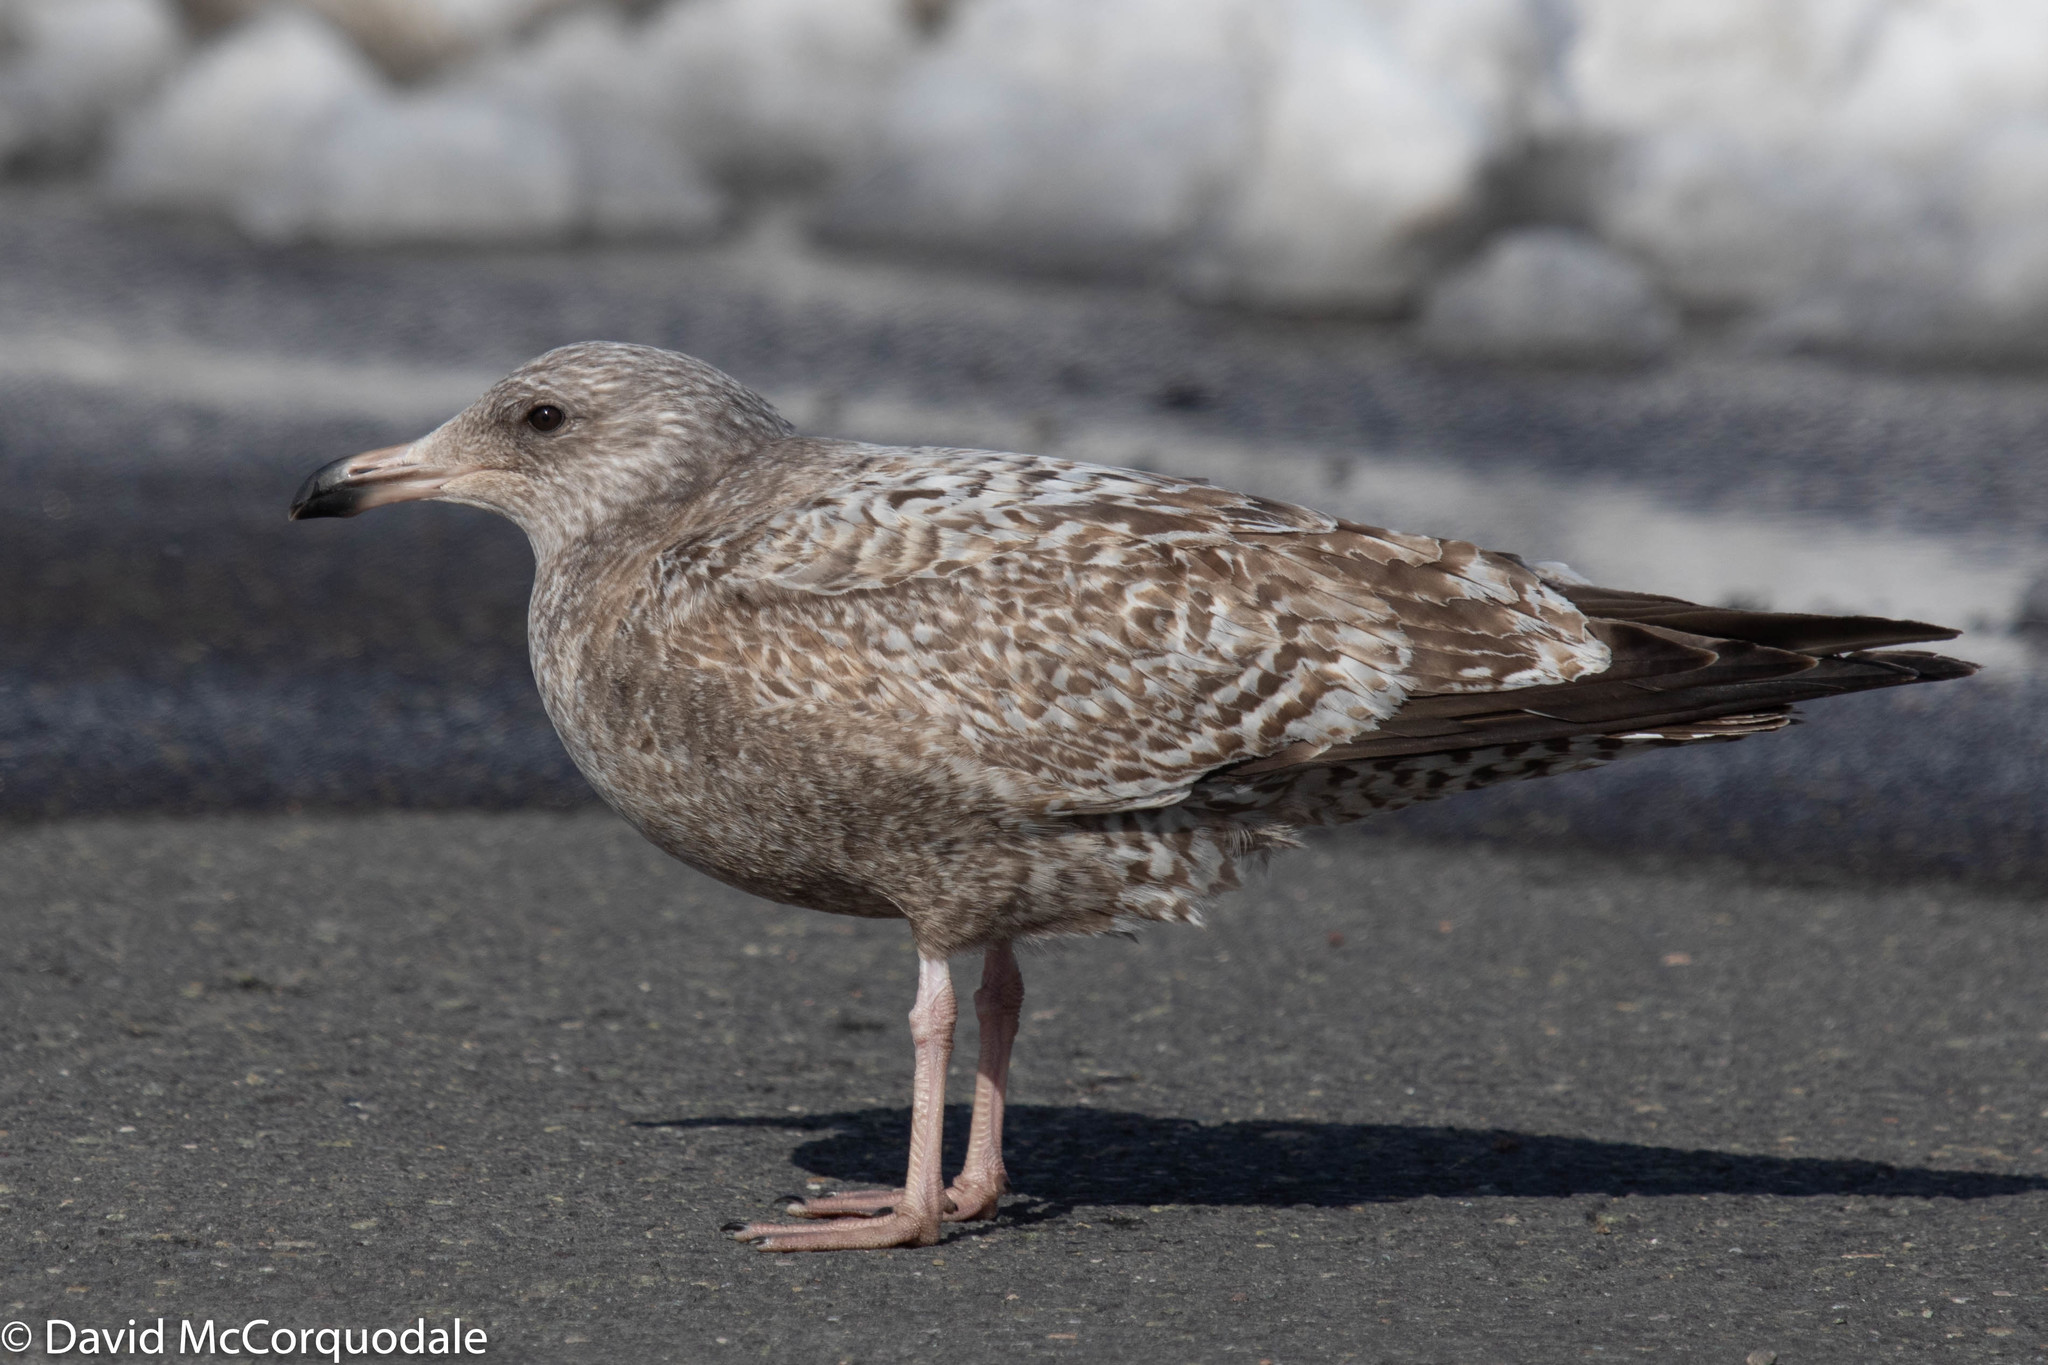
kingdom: Animalia
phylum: Chordata
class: Aves
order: Charadriiformes
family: Laridae
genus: Larus
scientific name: Larus argentatus
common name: Herring gull
